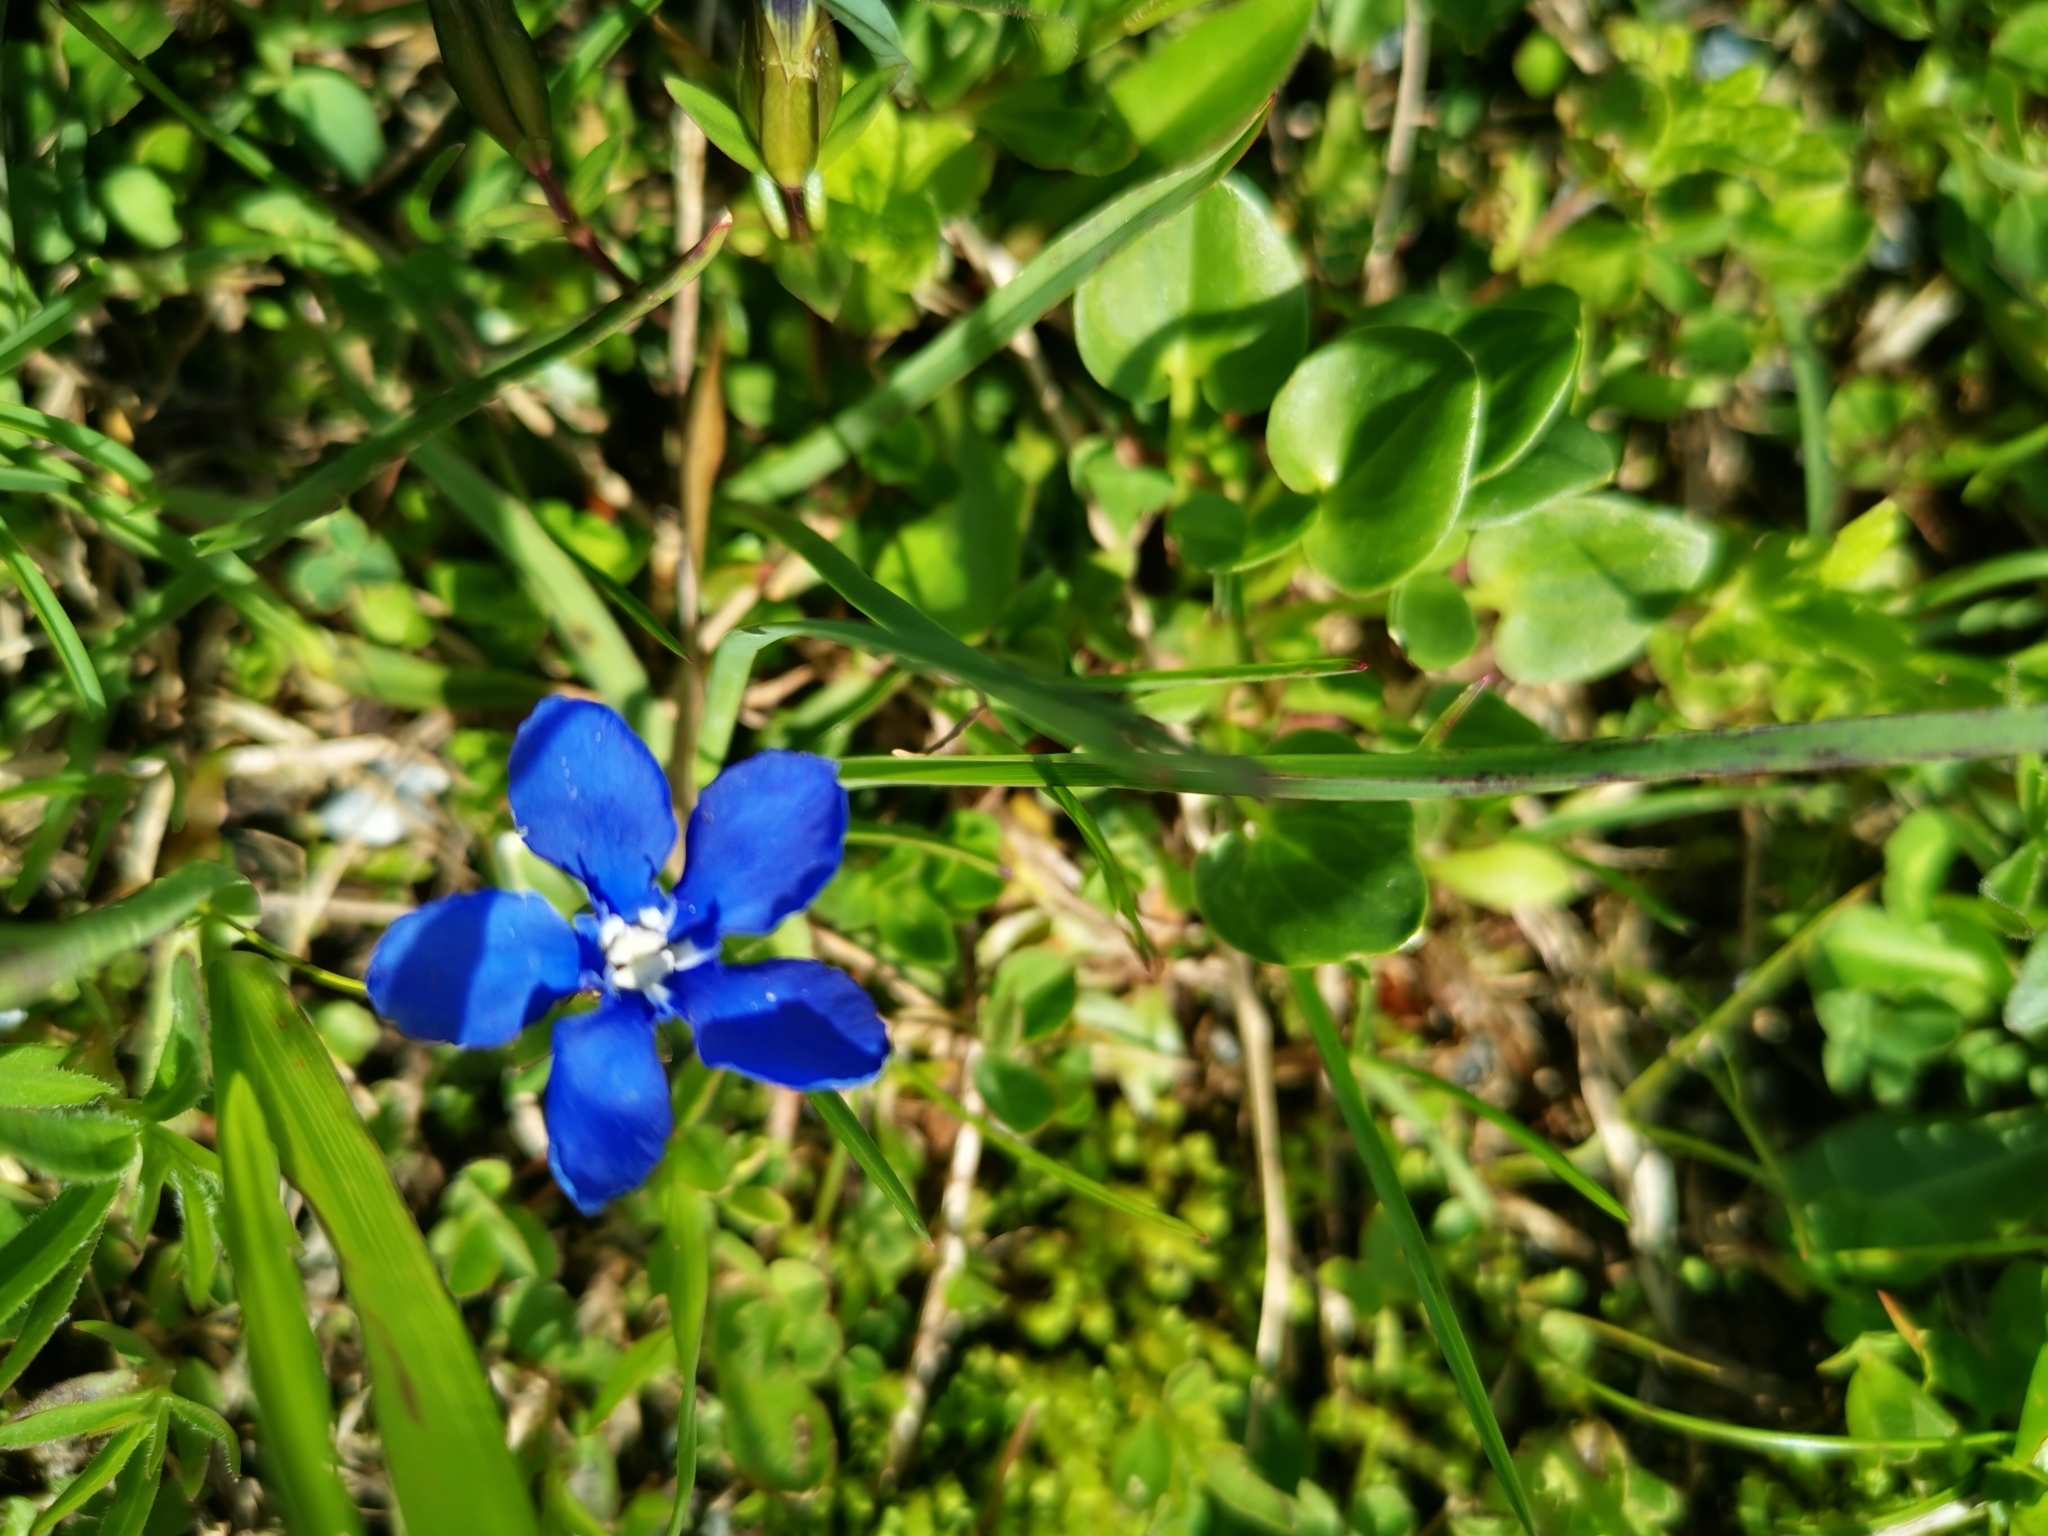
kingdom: Plantae
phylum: Tracheophyta
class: Magnoliopsida
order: Gentianales
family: Gentianaceae
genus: Gentiana
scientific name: Gentiana
